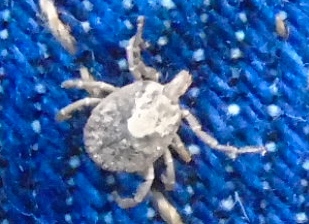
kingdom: Animalia
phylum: Arthropoda
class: Arachnida
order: Ixodida
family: Ixodidae
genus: Amblyomma
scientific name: Amblyomma cajennense
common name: Cayenne tick
